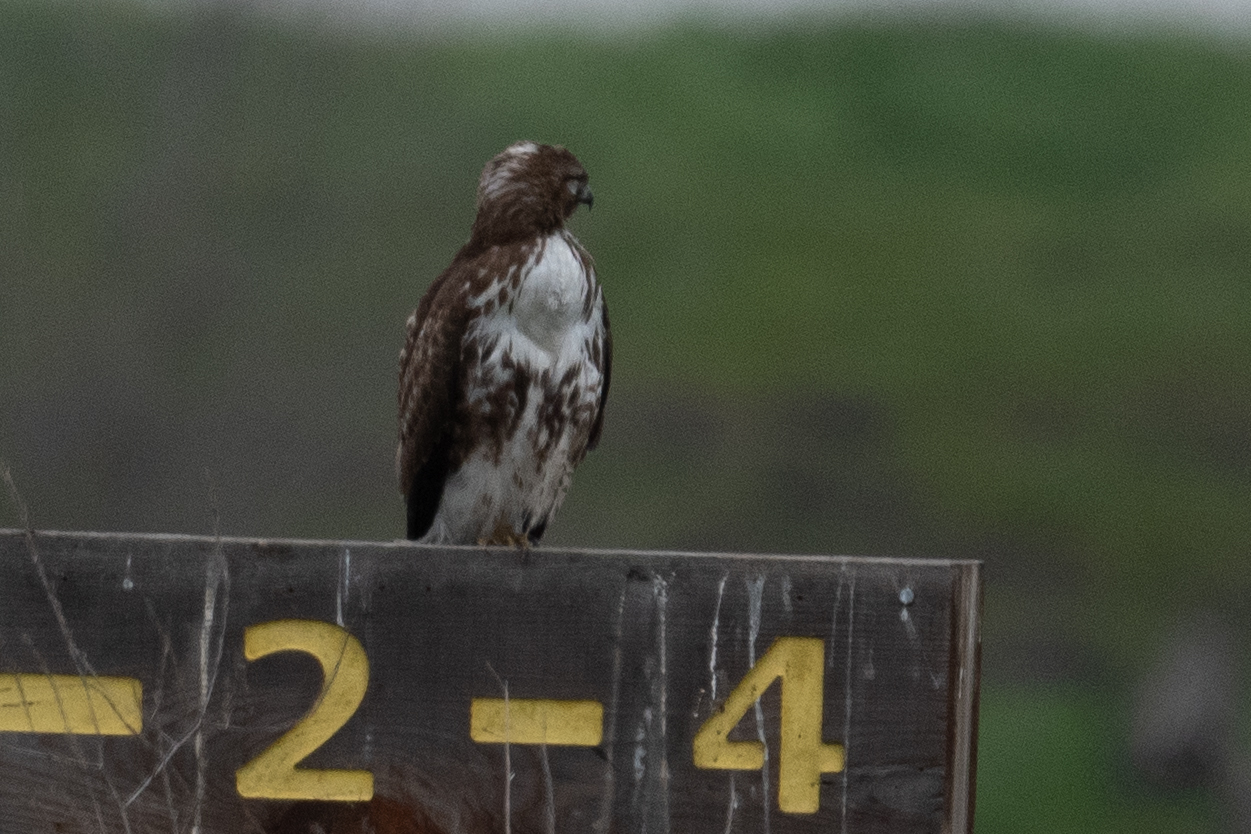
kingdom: Animalia
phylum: Chordata
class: Aves
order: Accipitriformes
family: Accipitridae
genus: Buteo
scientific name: Buteo jamaicensis
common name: Red-tailed hawk
